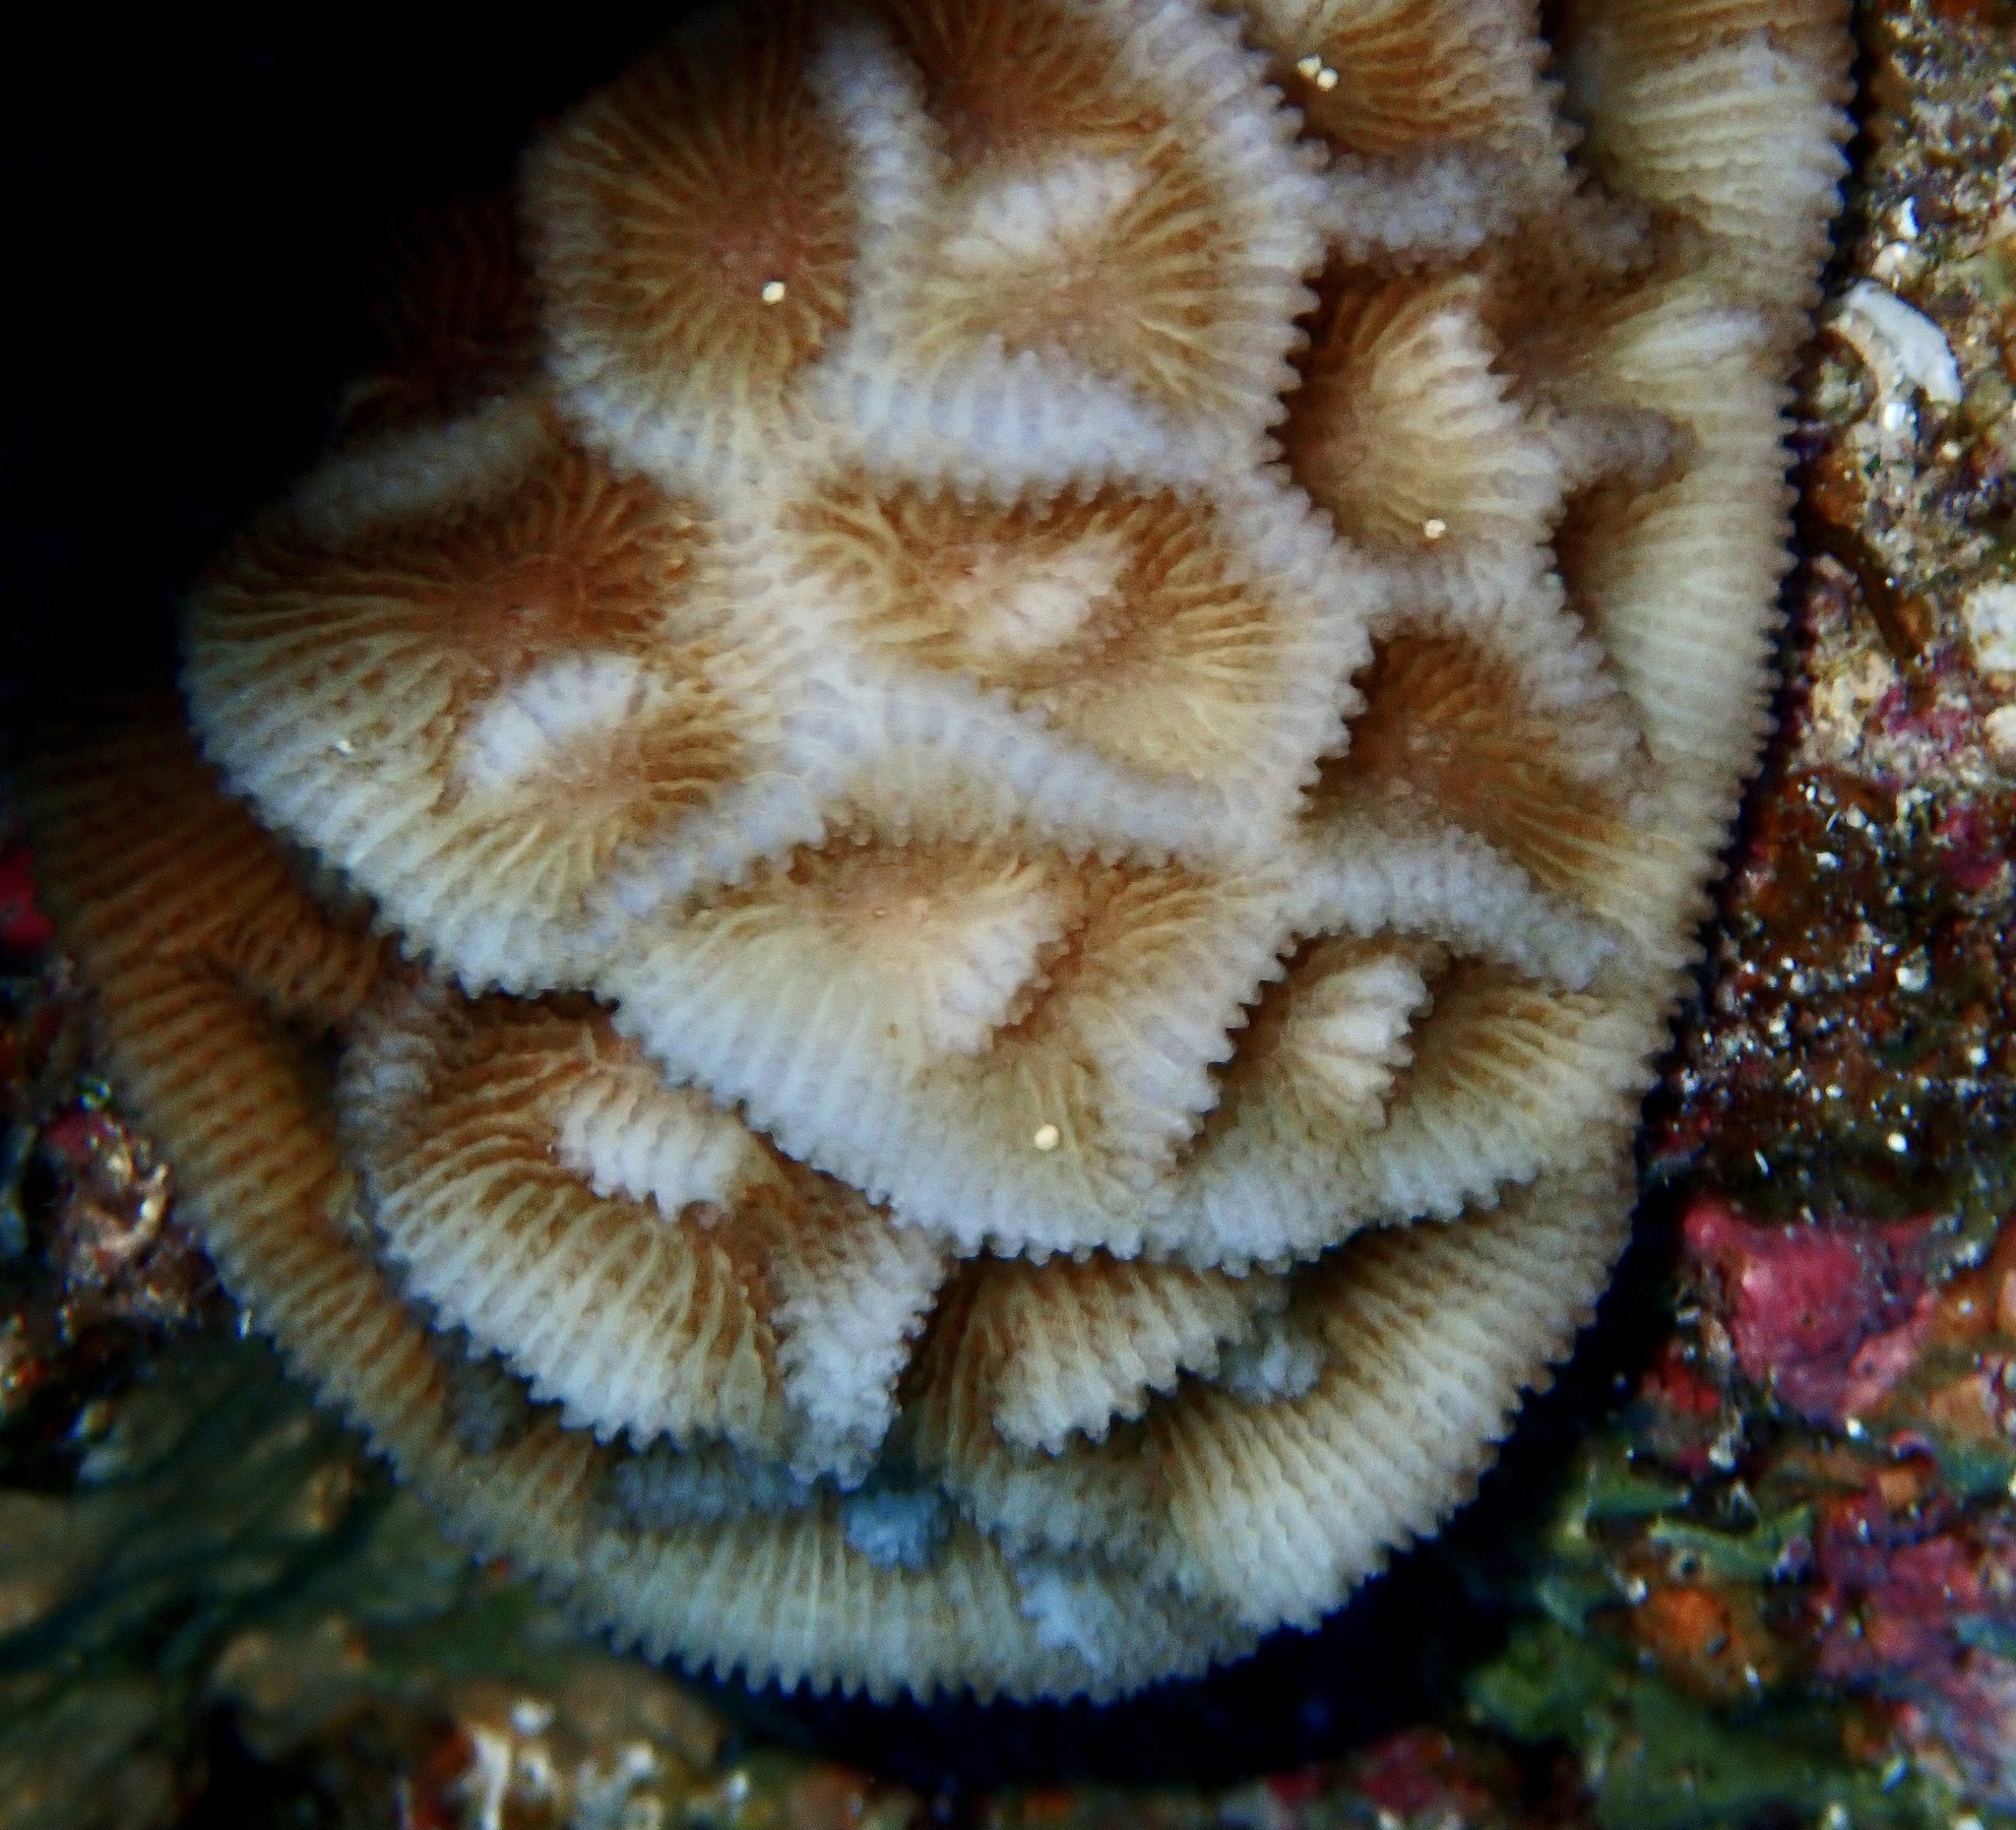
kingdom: Animalia
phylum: Cnidaria
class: Anthozoa
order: Scleractinia
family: Merulinidae
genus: Paramontastraea
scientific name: Paramontastraea peresi
